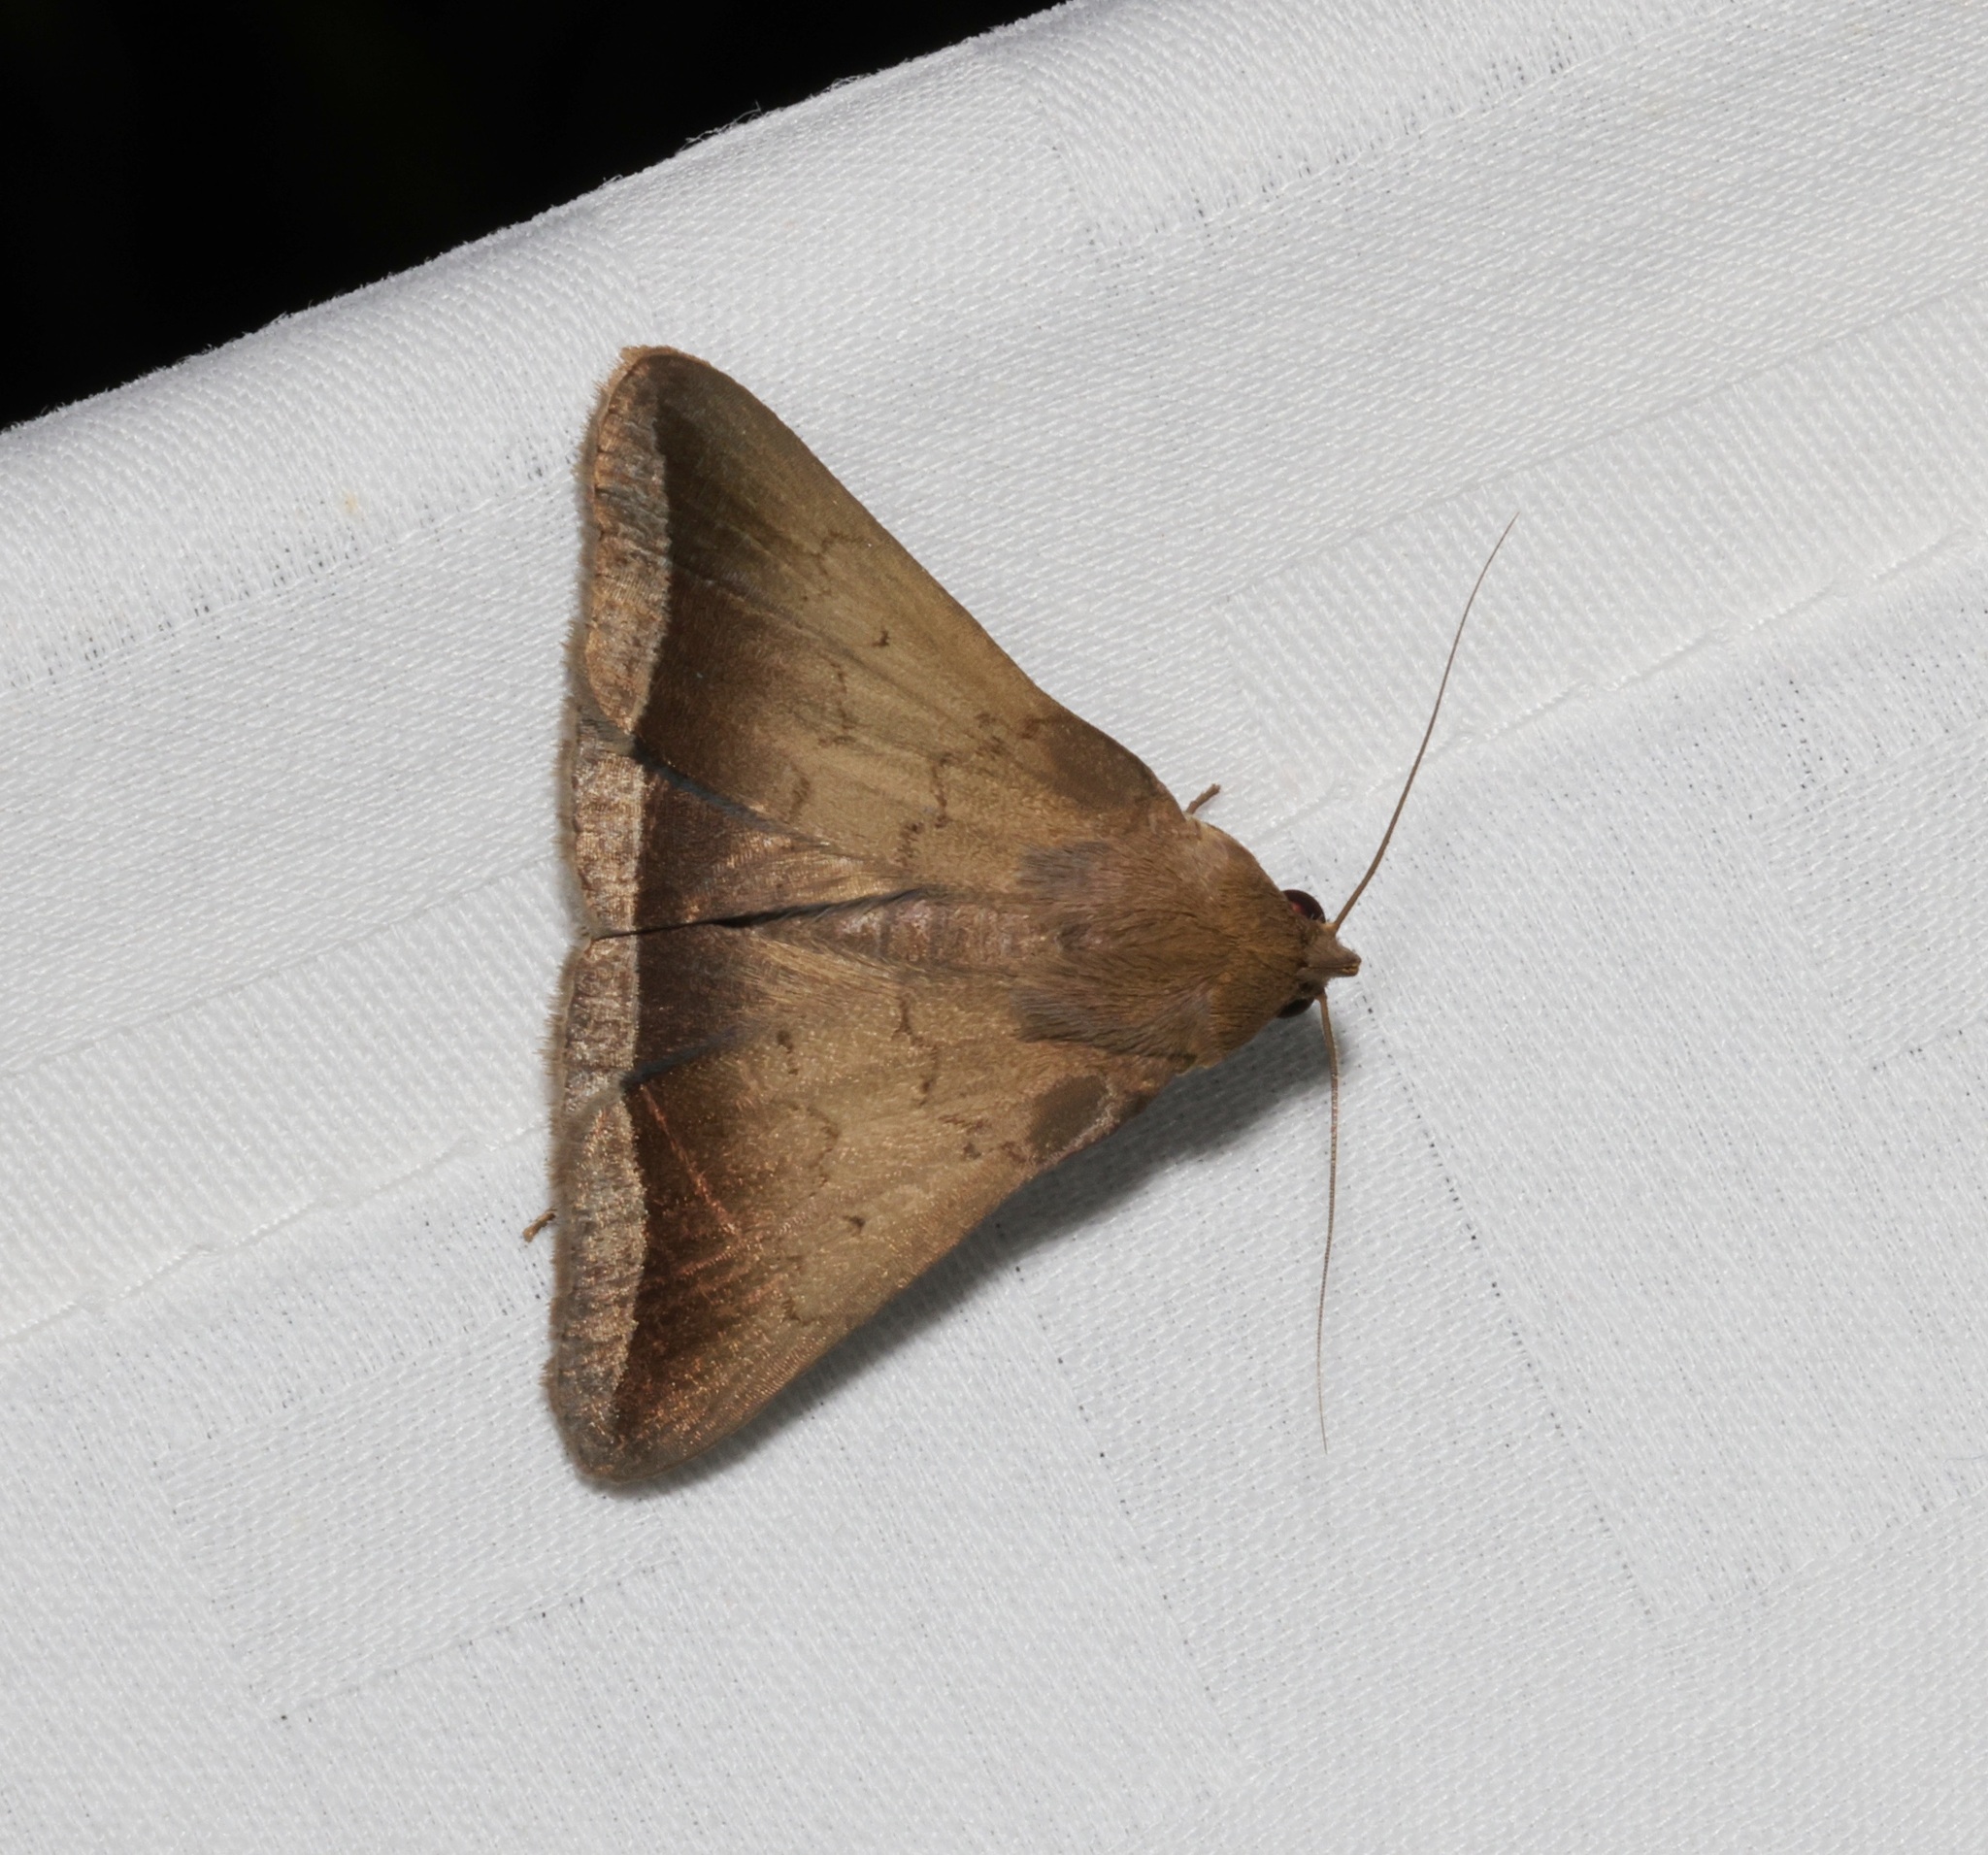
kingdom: Animalia
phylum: Arthropoda
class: Insecta
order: Lepidoptera
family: Erebidae
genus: Simplicia
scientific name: Simplicia bimarginata
